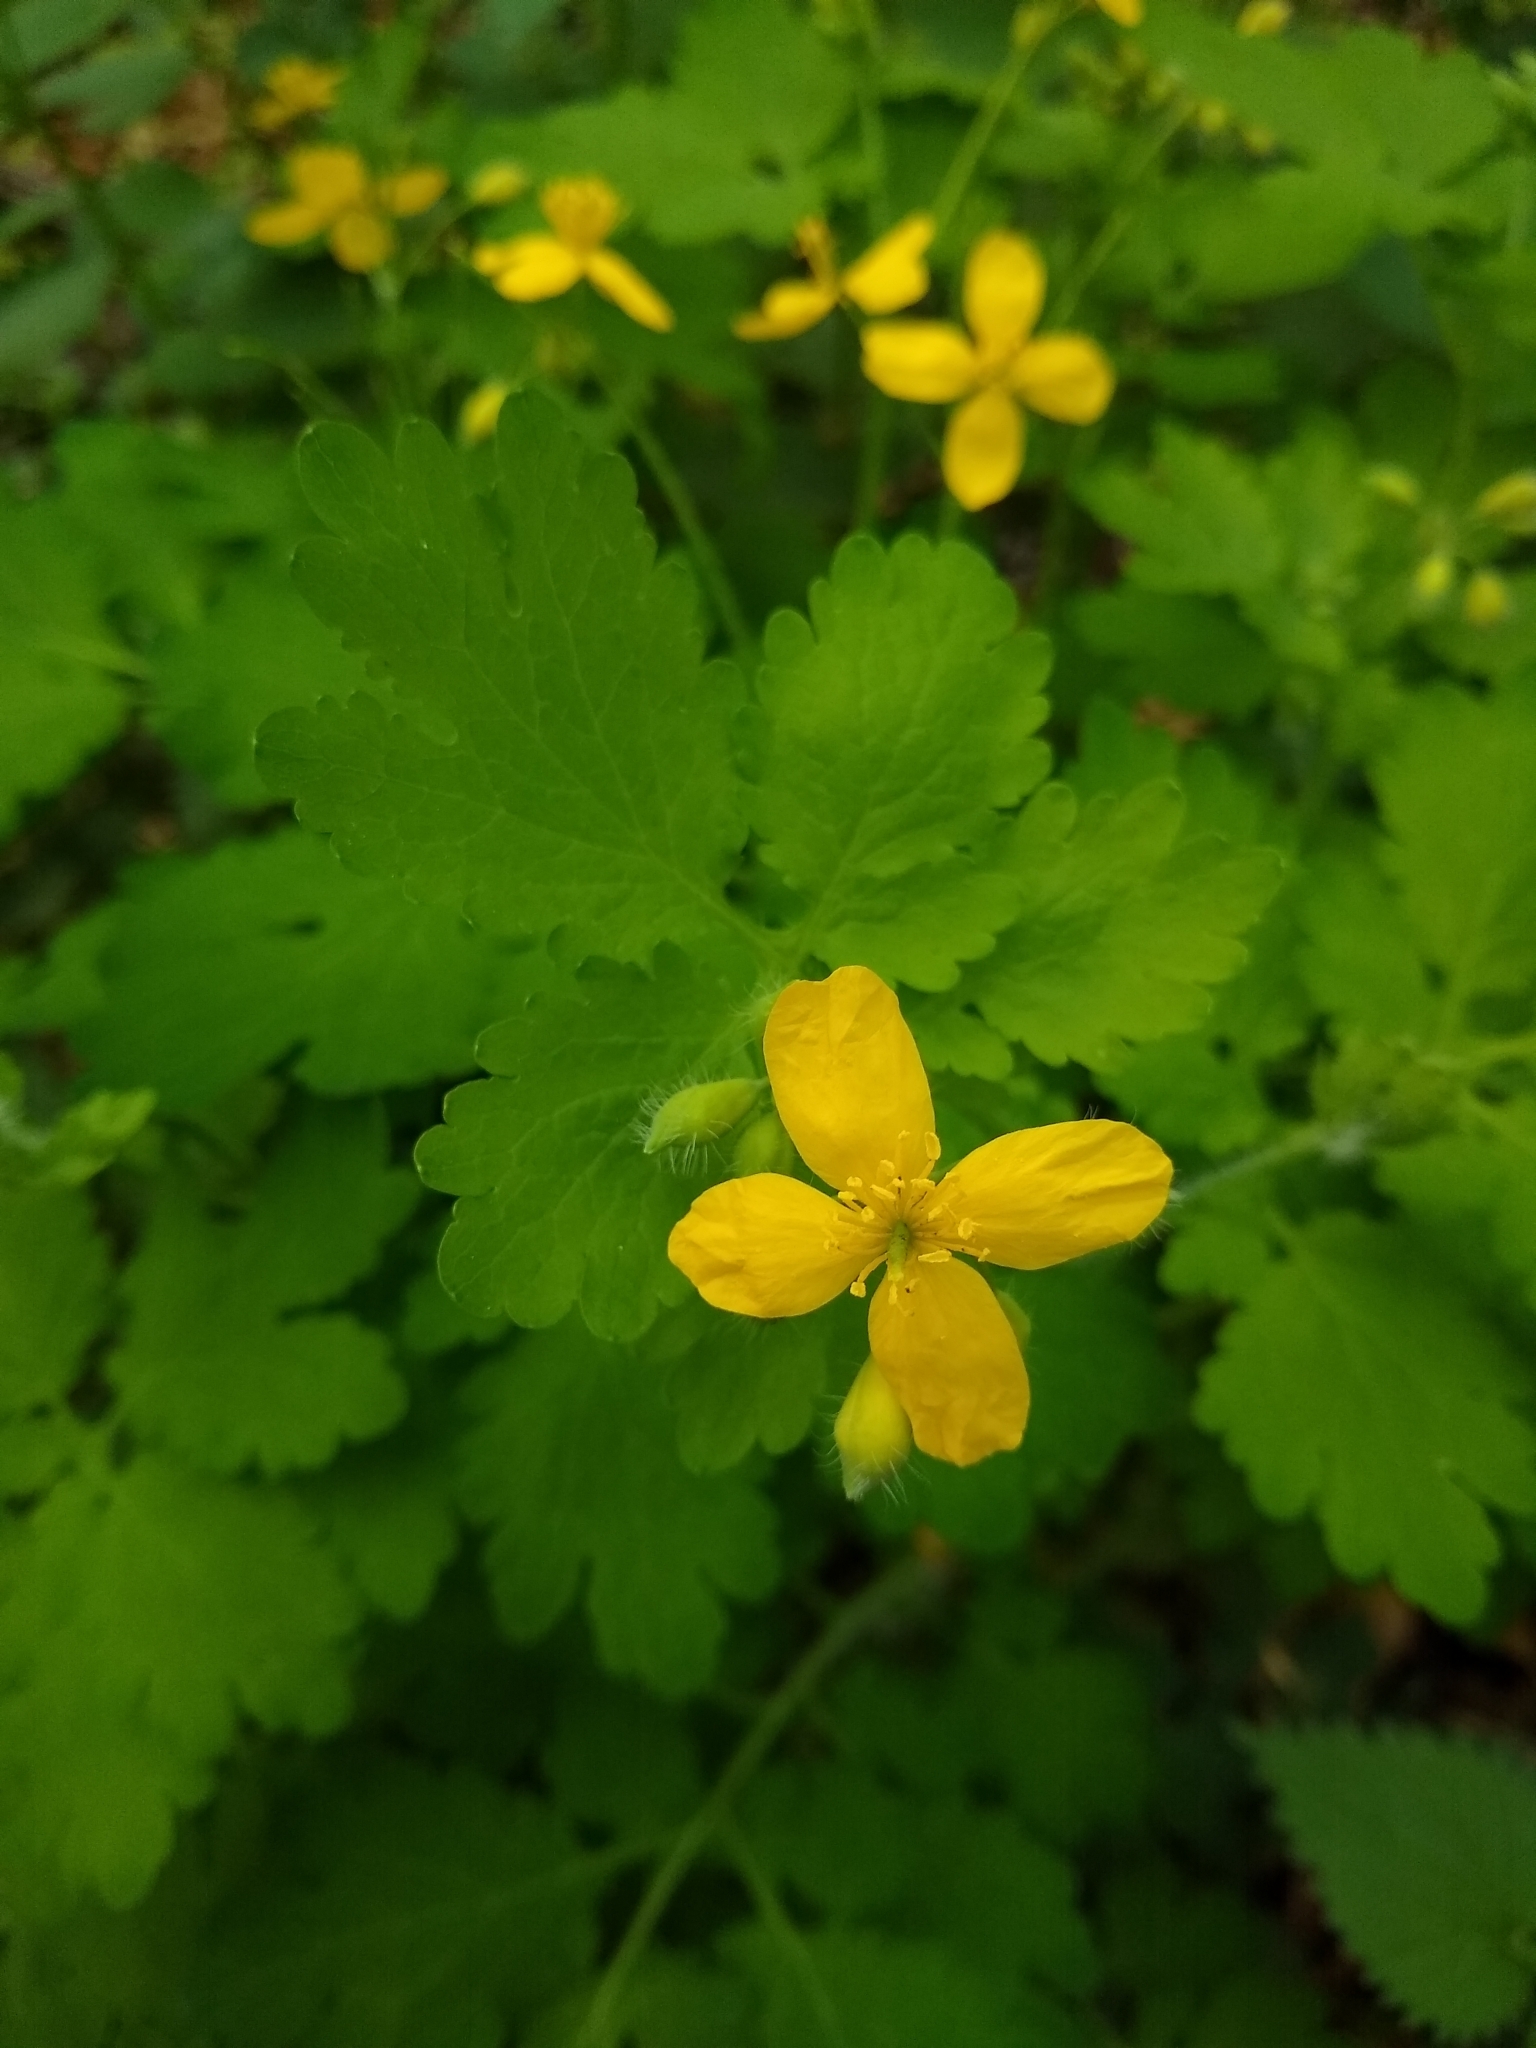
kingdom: Plantae
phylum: Tracheophyta
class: Magnoliopsida
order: Ranunculales
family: Papaveraceae
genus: Chelidonium
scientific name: Chelidonium majus
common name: Greater celandine
